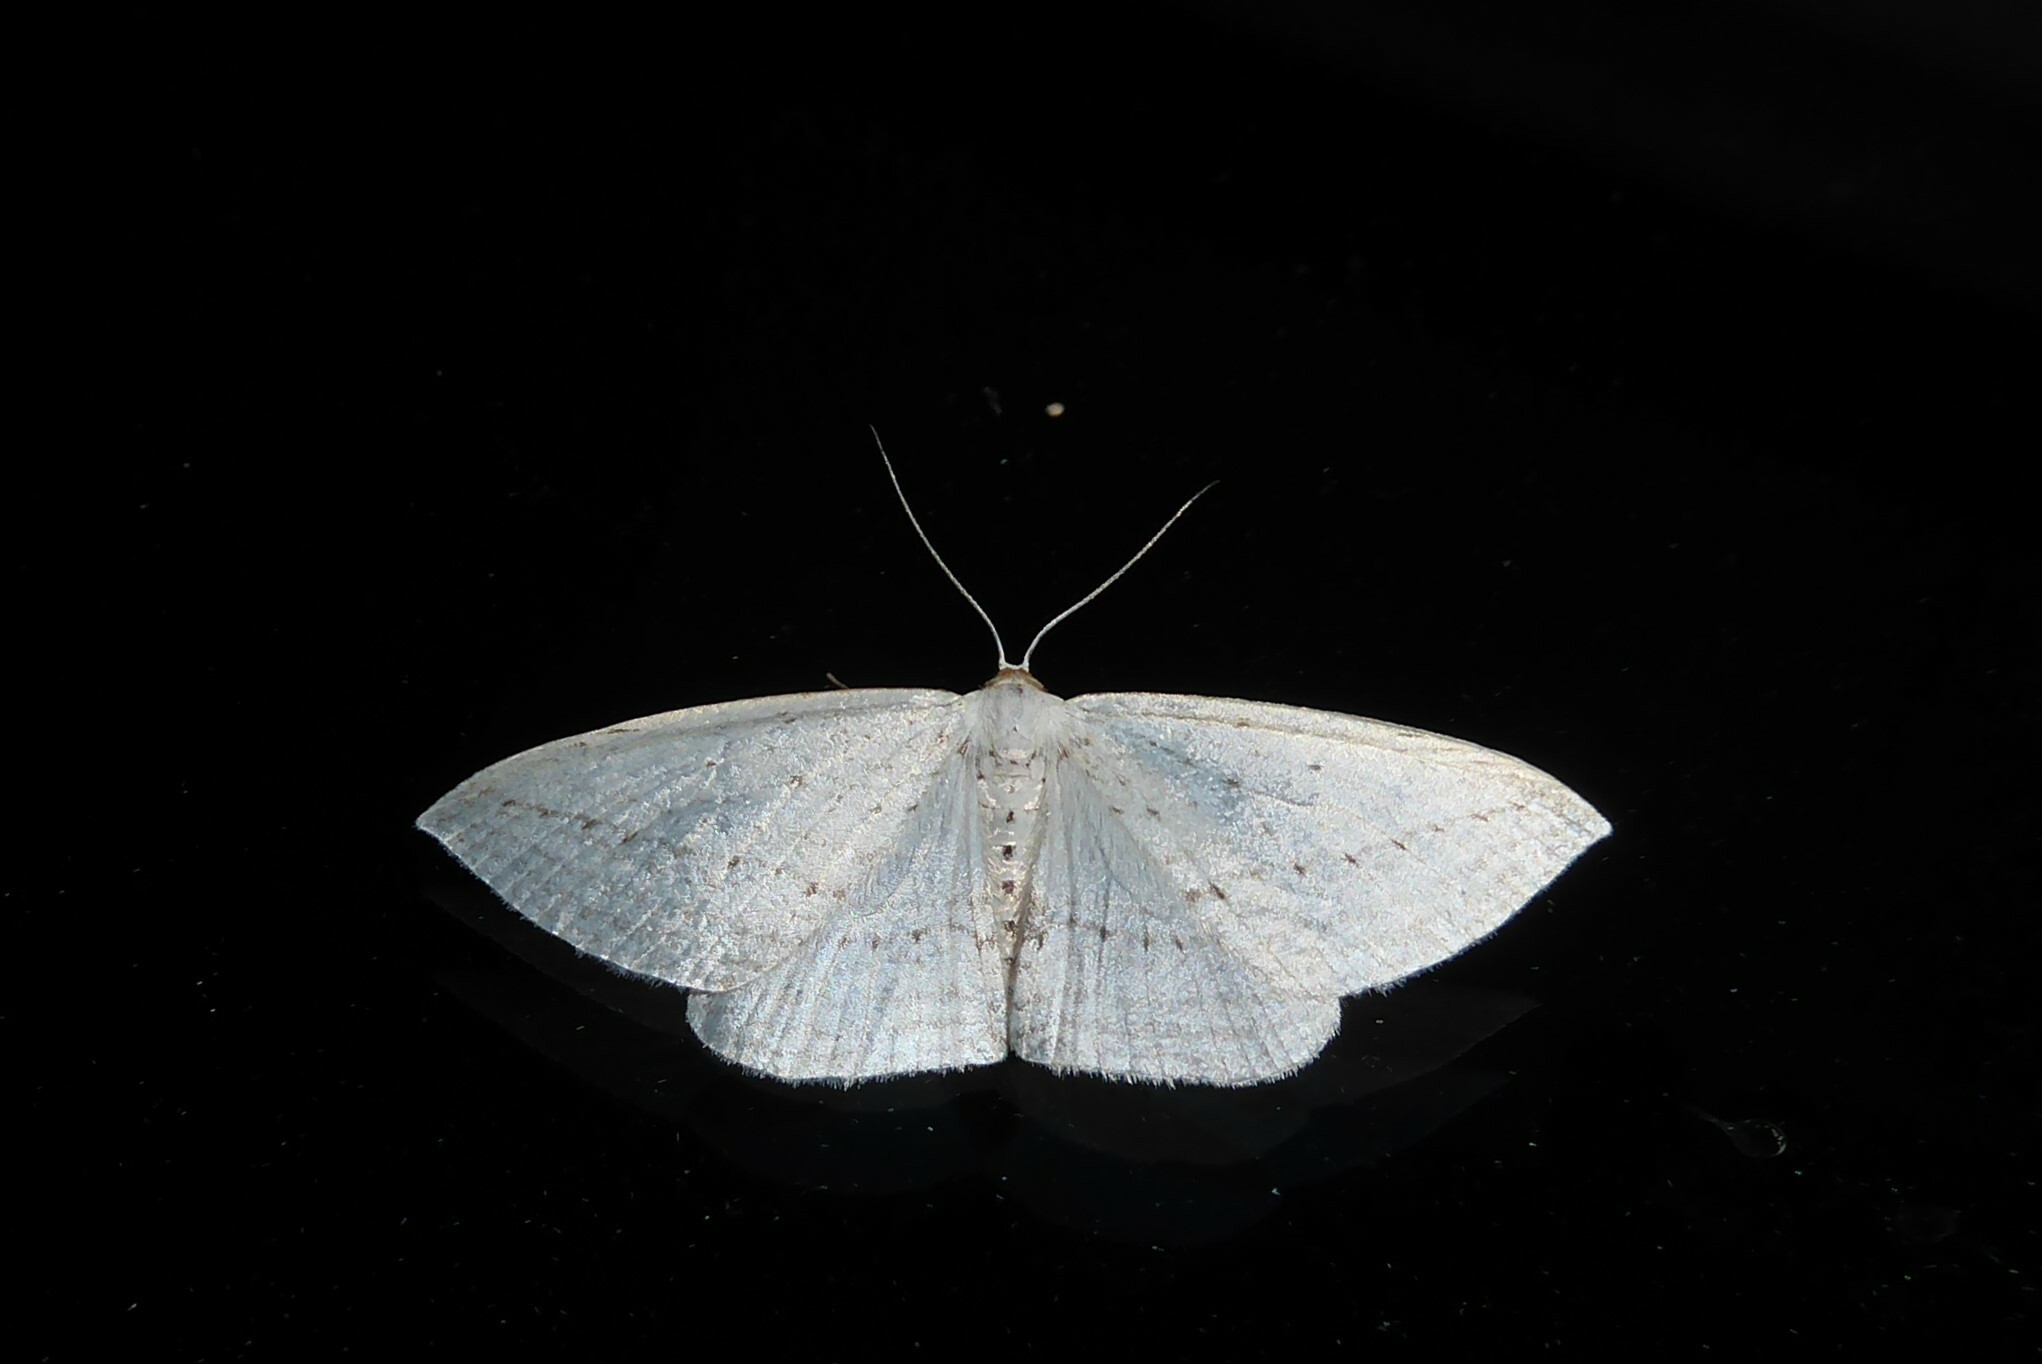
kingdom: Animalia
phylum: Arthropoda
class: Insecta
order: Lepidoptera
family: Geometridae
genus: Orthoclydon
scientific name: Orthoclydon praefectata
